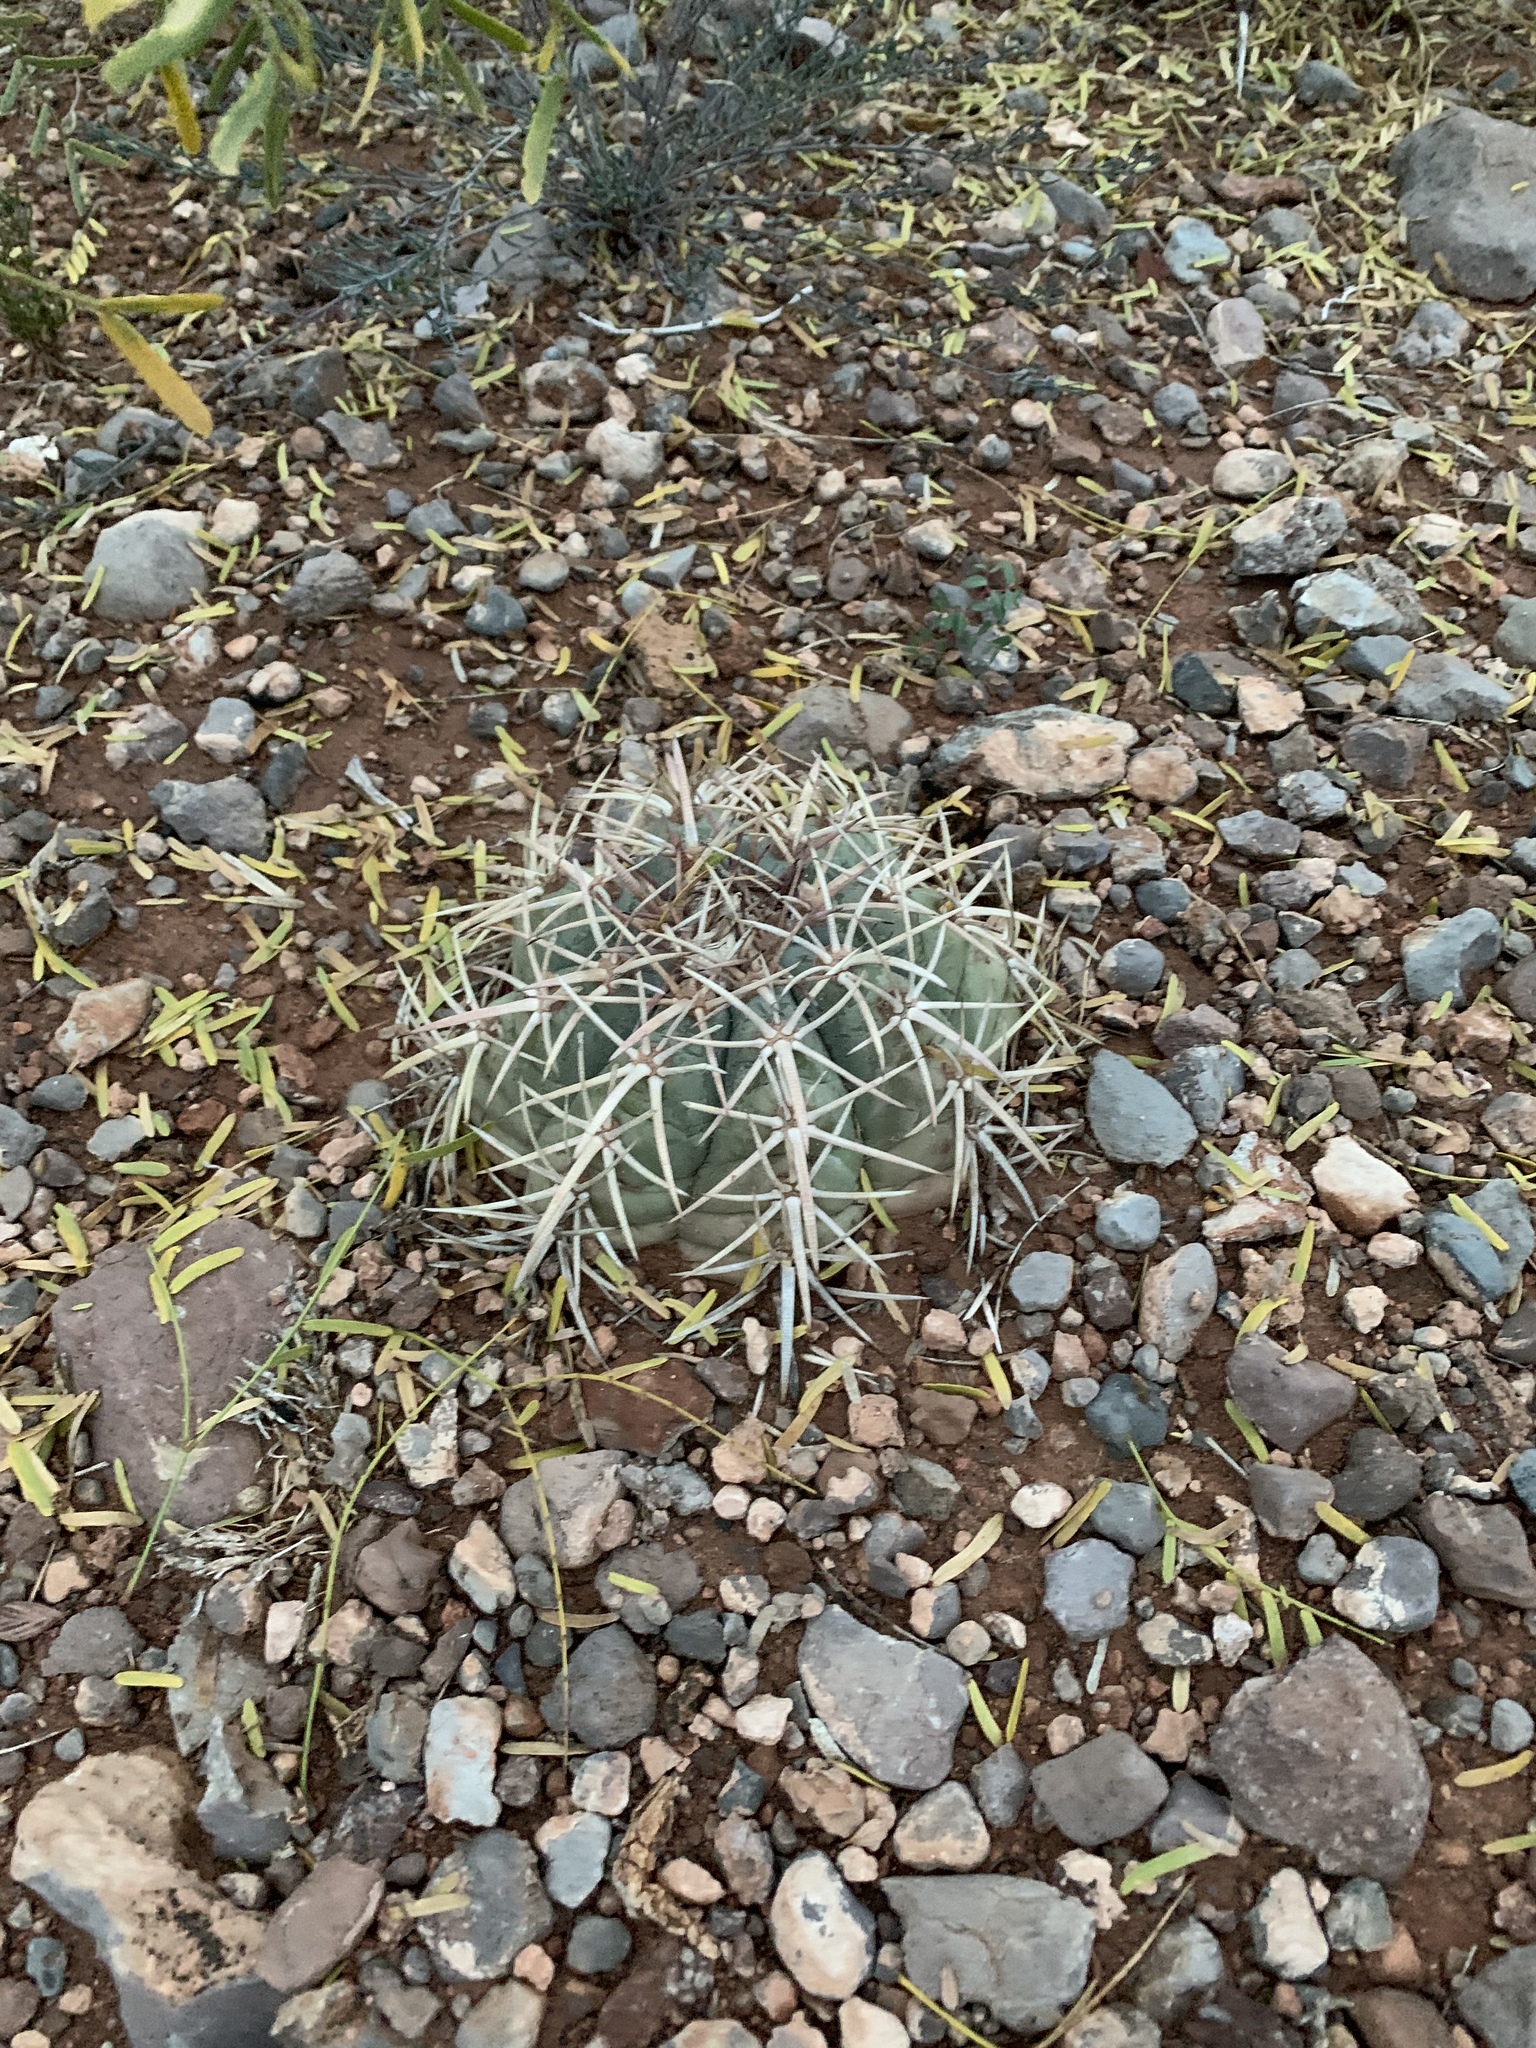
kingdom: Plantae
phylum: Tracheophyta
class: Magnoliopsida
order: Caryophyllales
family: Cactaceae
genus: Echinocactus
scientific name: Echinocactus horizonthalonius
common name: Devilshead
